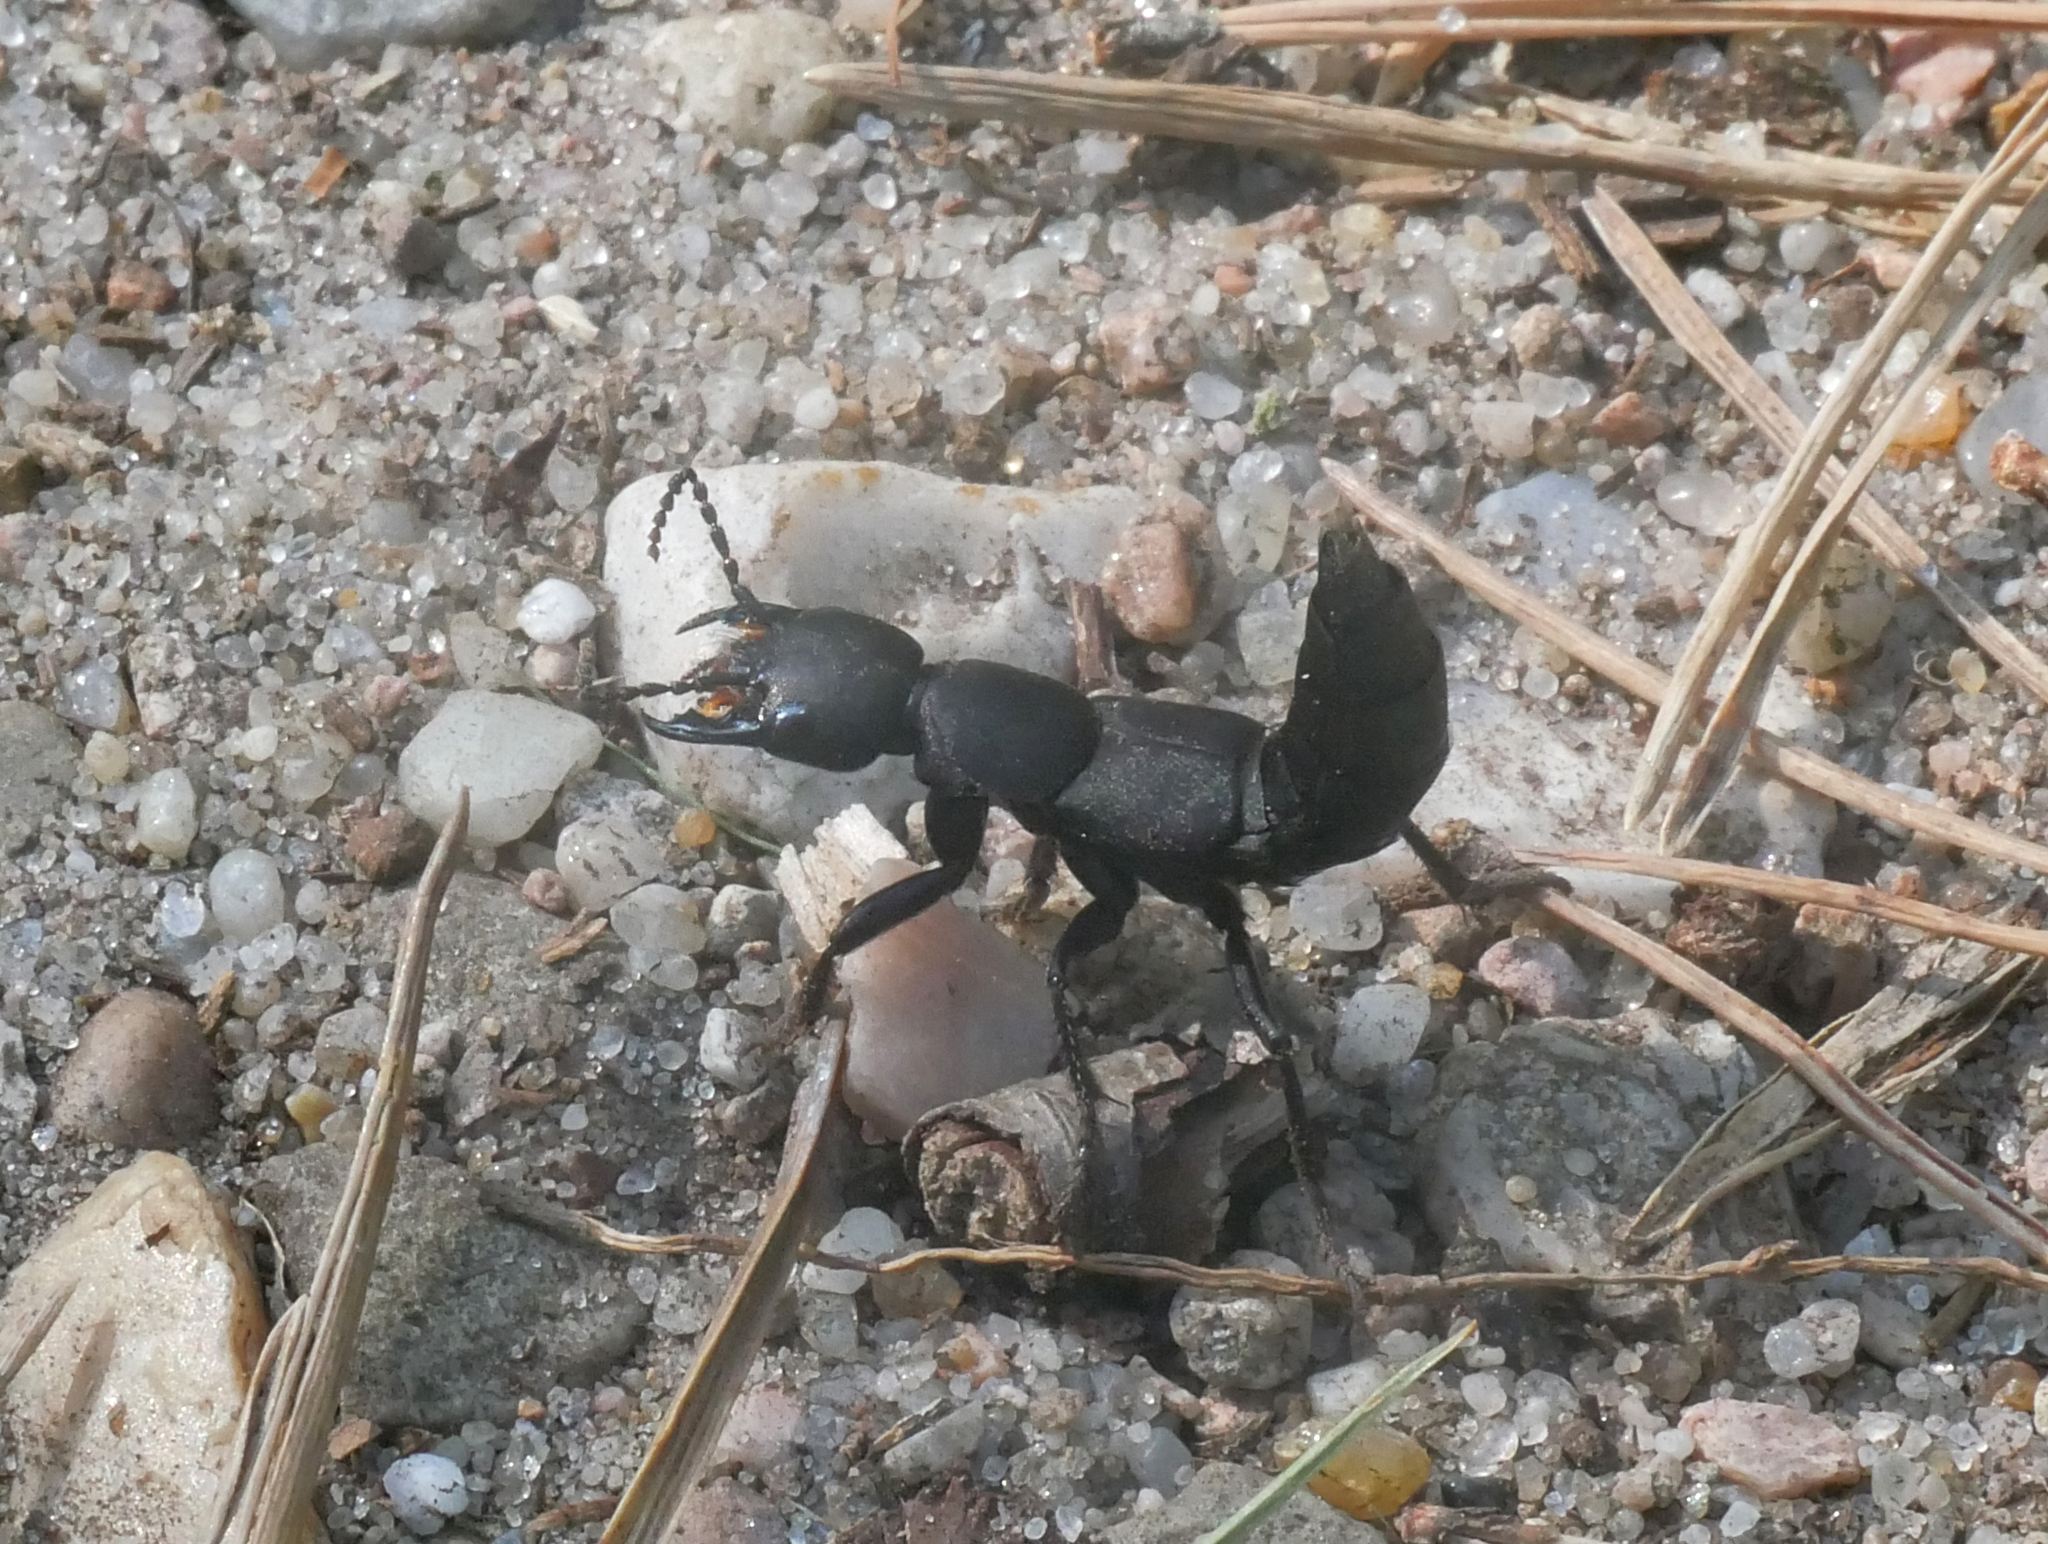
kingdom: Animalia
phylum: Arthropoda
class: Insecta
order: Coleoptera
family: Staphylinidae
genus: Ocypus
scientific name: Ocypus olens
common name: Devil's coach-horse
